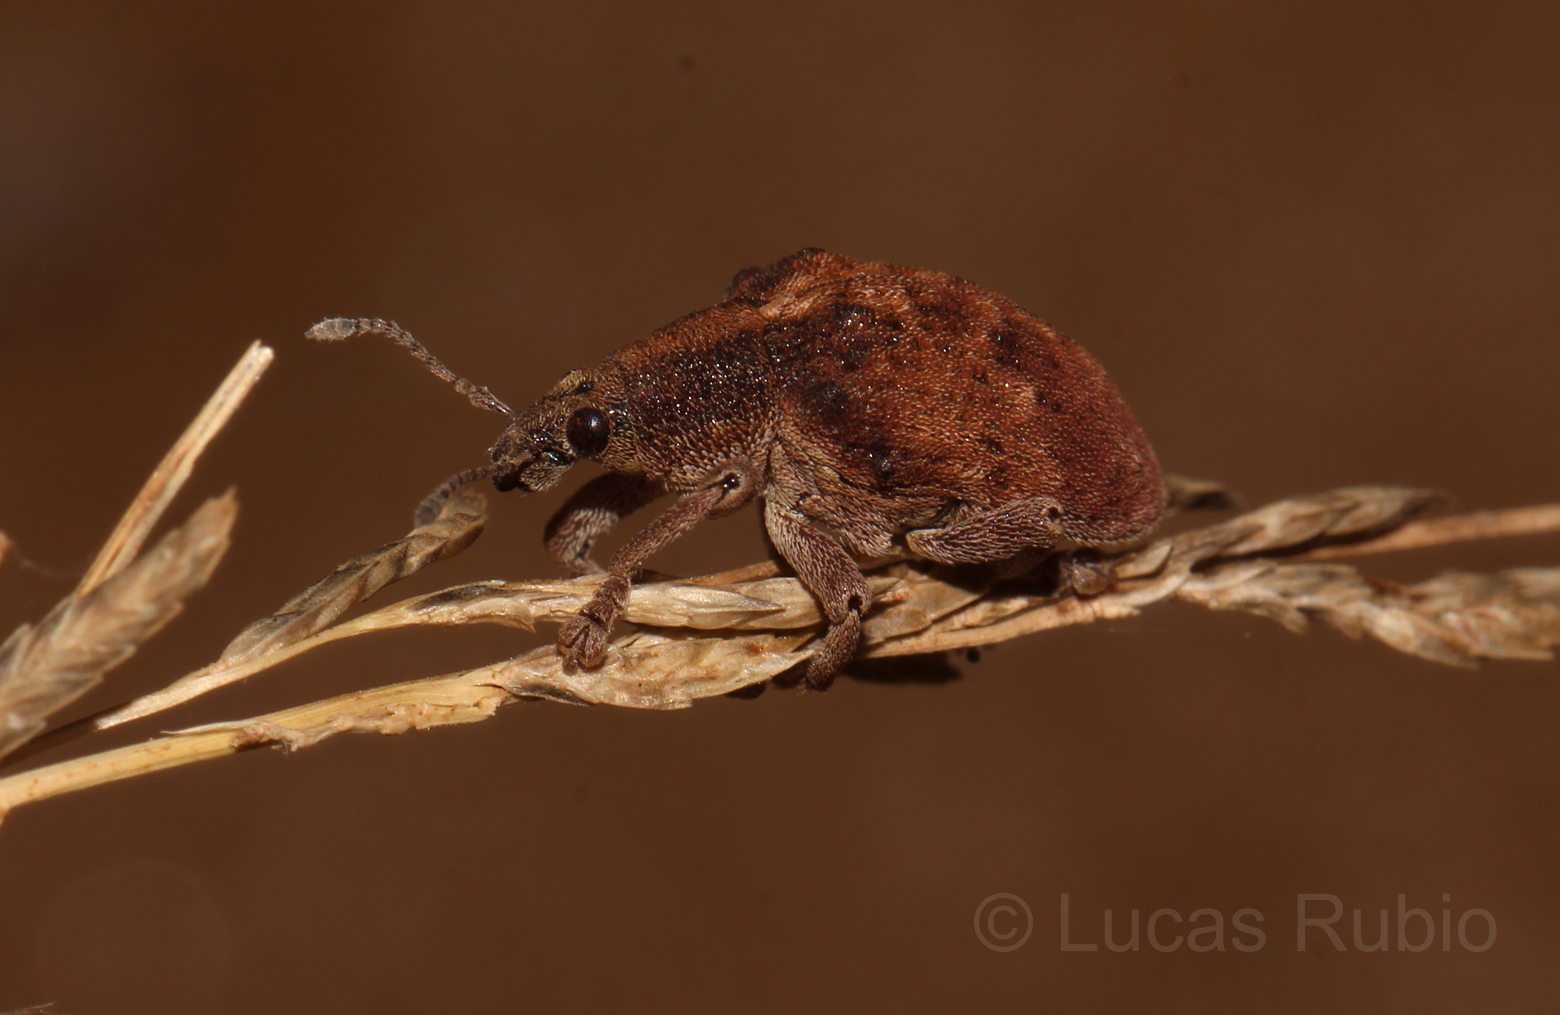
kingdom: Animalia
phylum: Arthropoda
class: Insecta
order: Coleoptera
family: Curculionidae
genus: Gonipterus
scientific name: Gonipterus platensis
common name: Eucalyptus snout beetle
